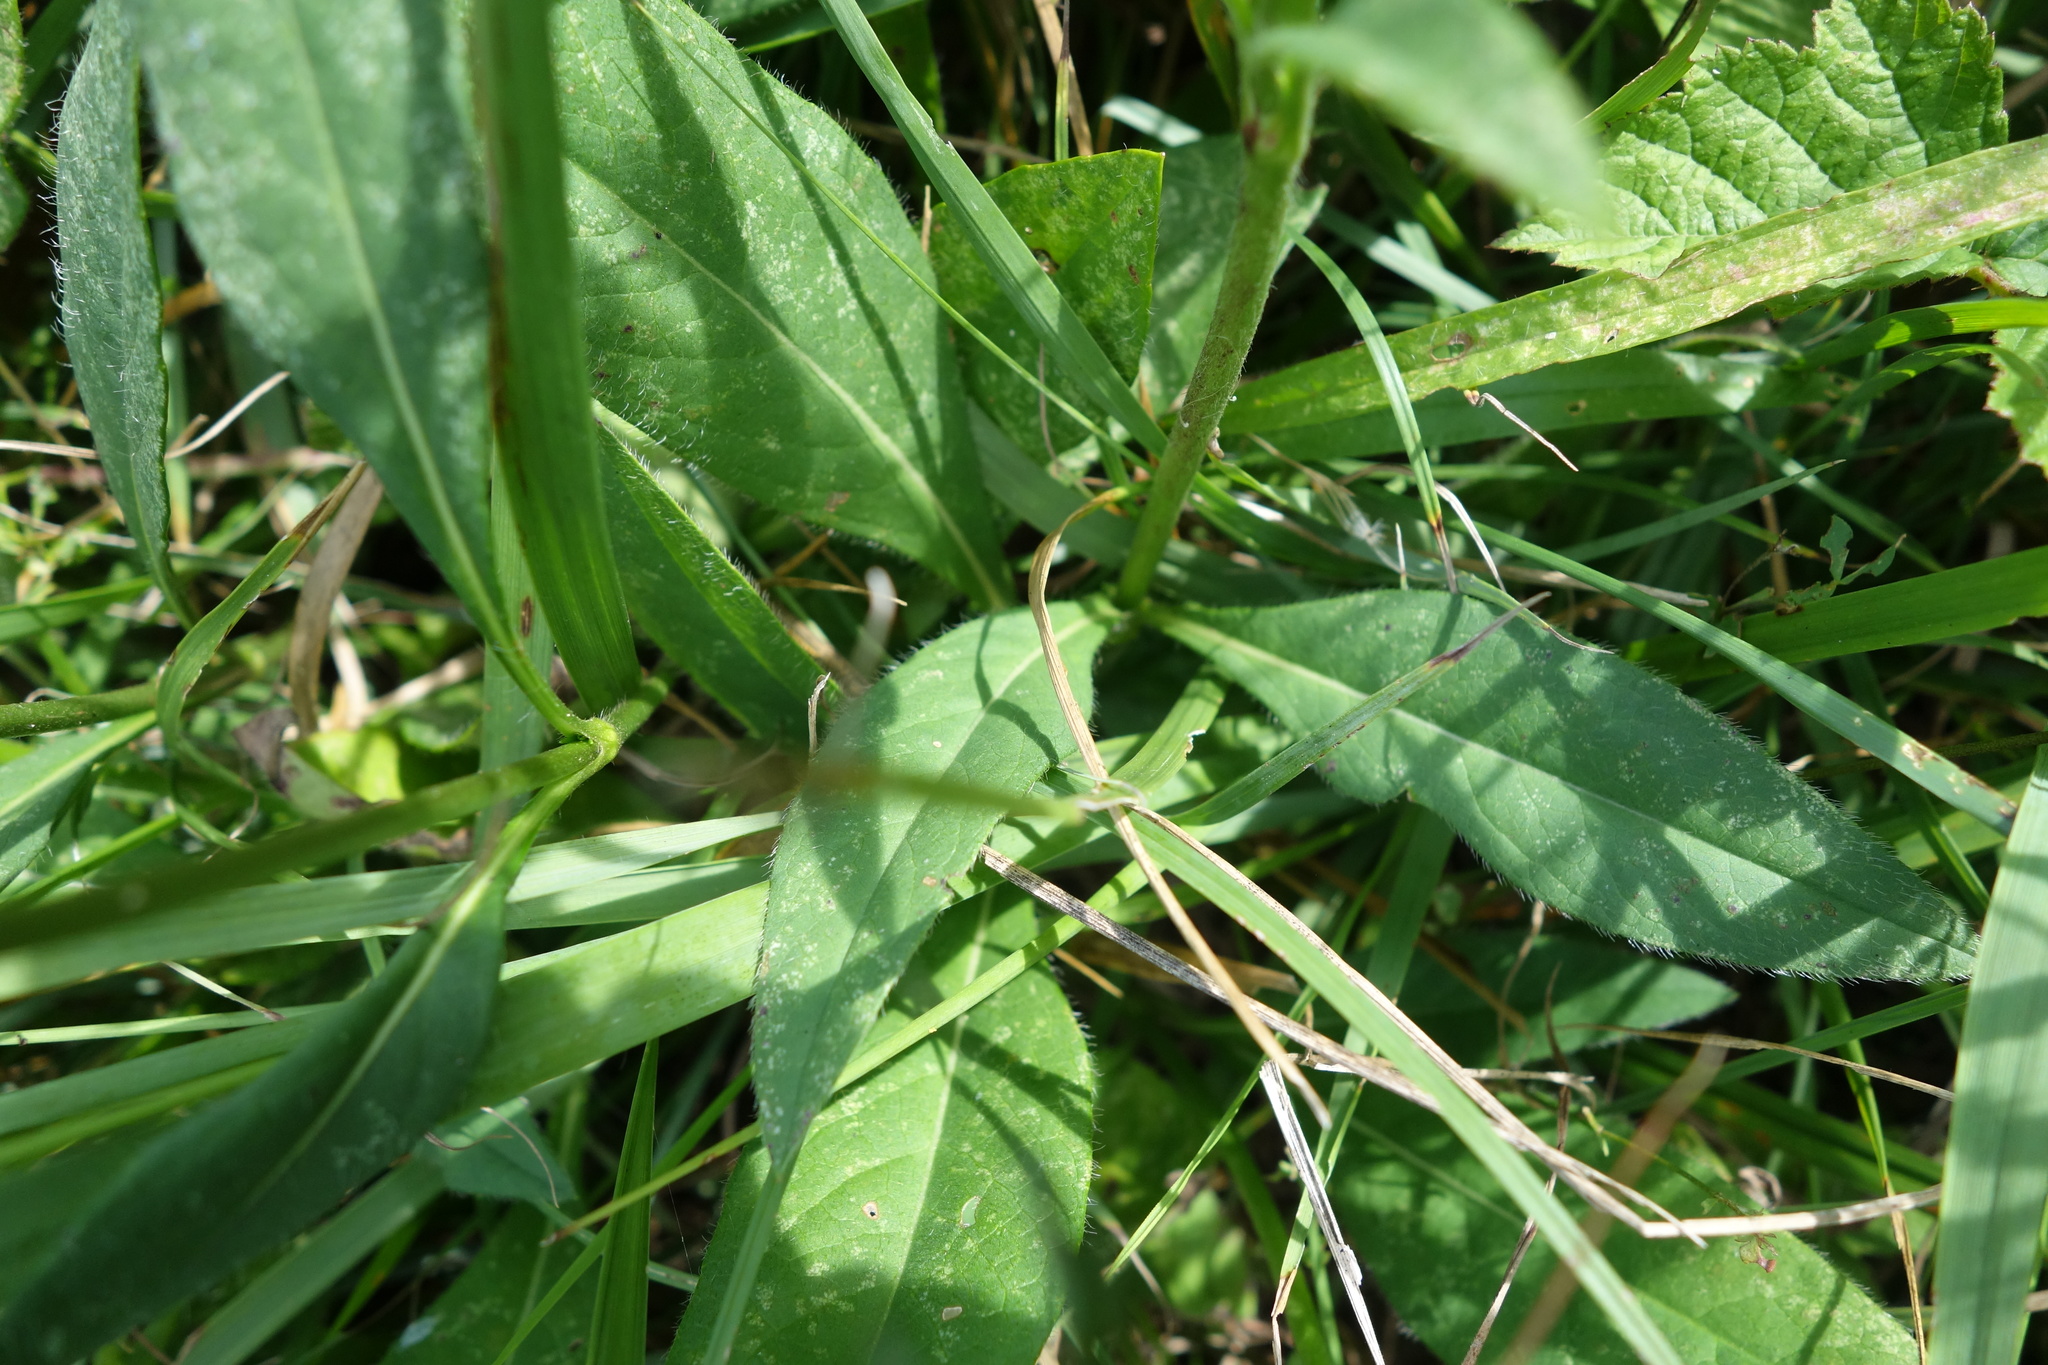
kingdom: Plantae
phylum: Tracheophyta
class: Magnoliopsida
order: Dipsacales
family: Caprifoliaceae
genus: Succisa
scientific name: Succisa pratensis
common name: Devil's-bit
